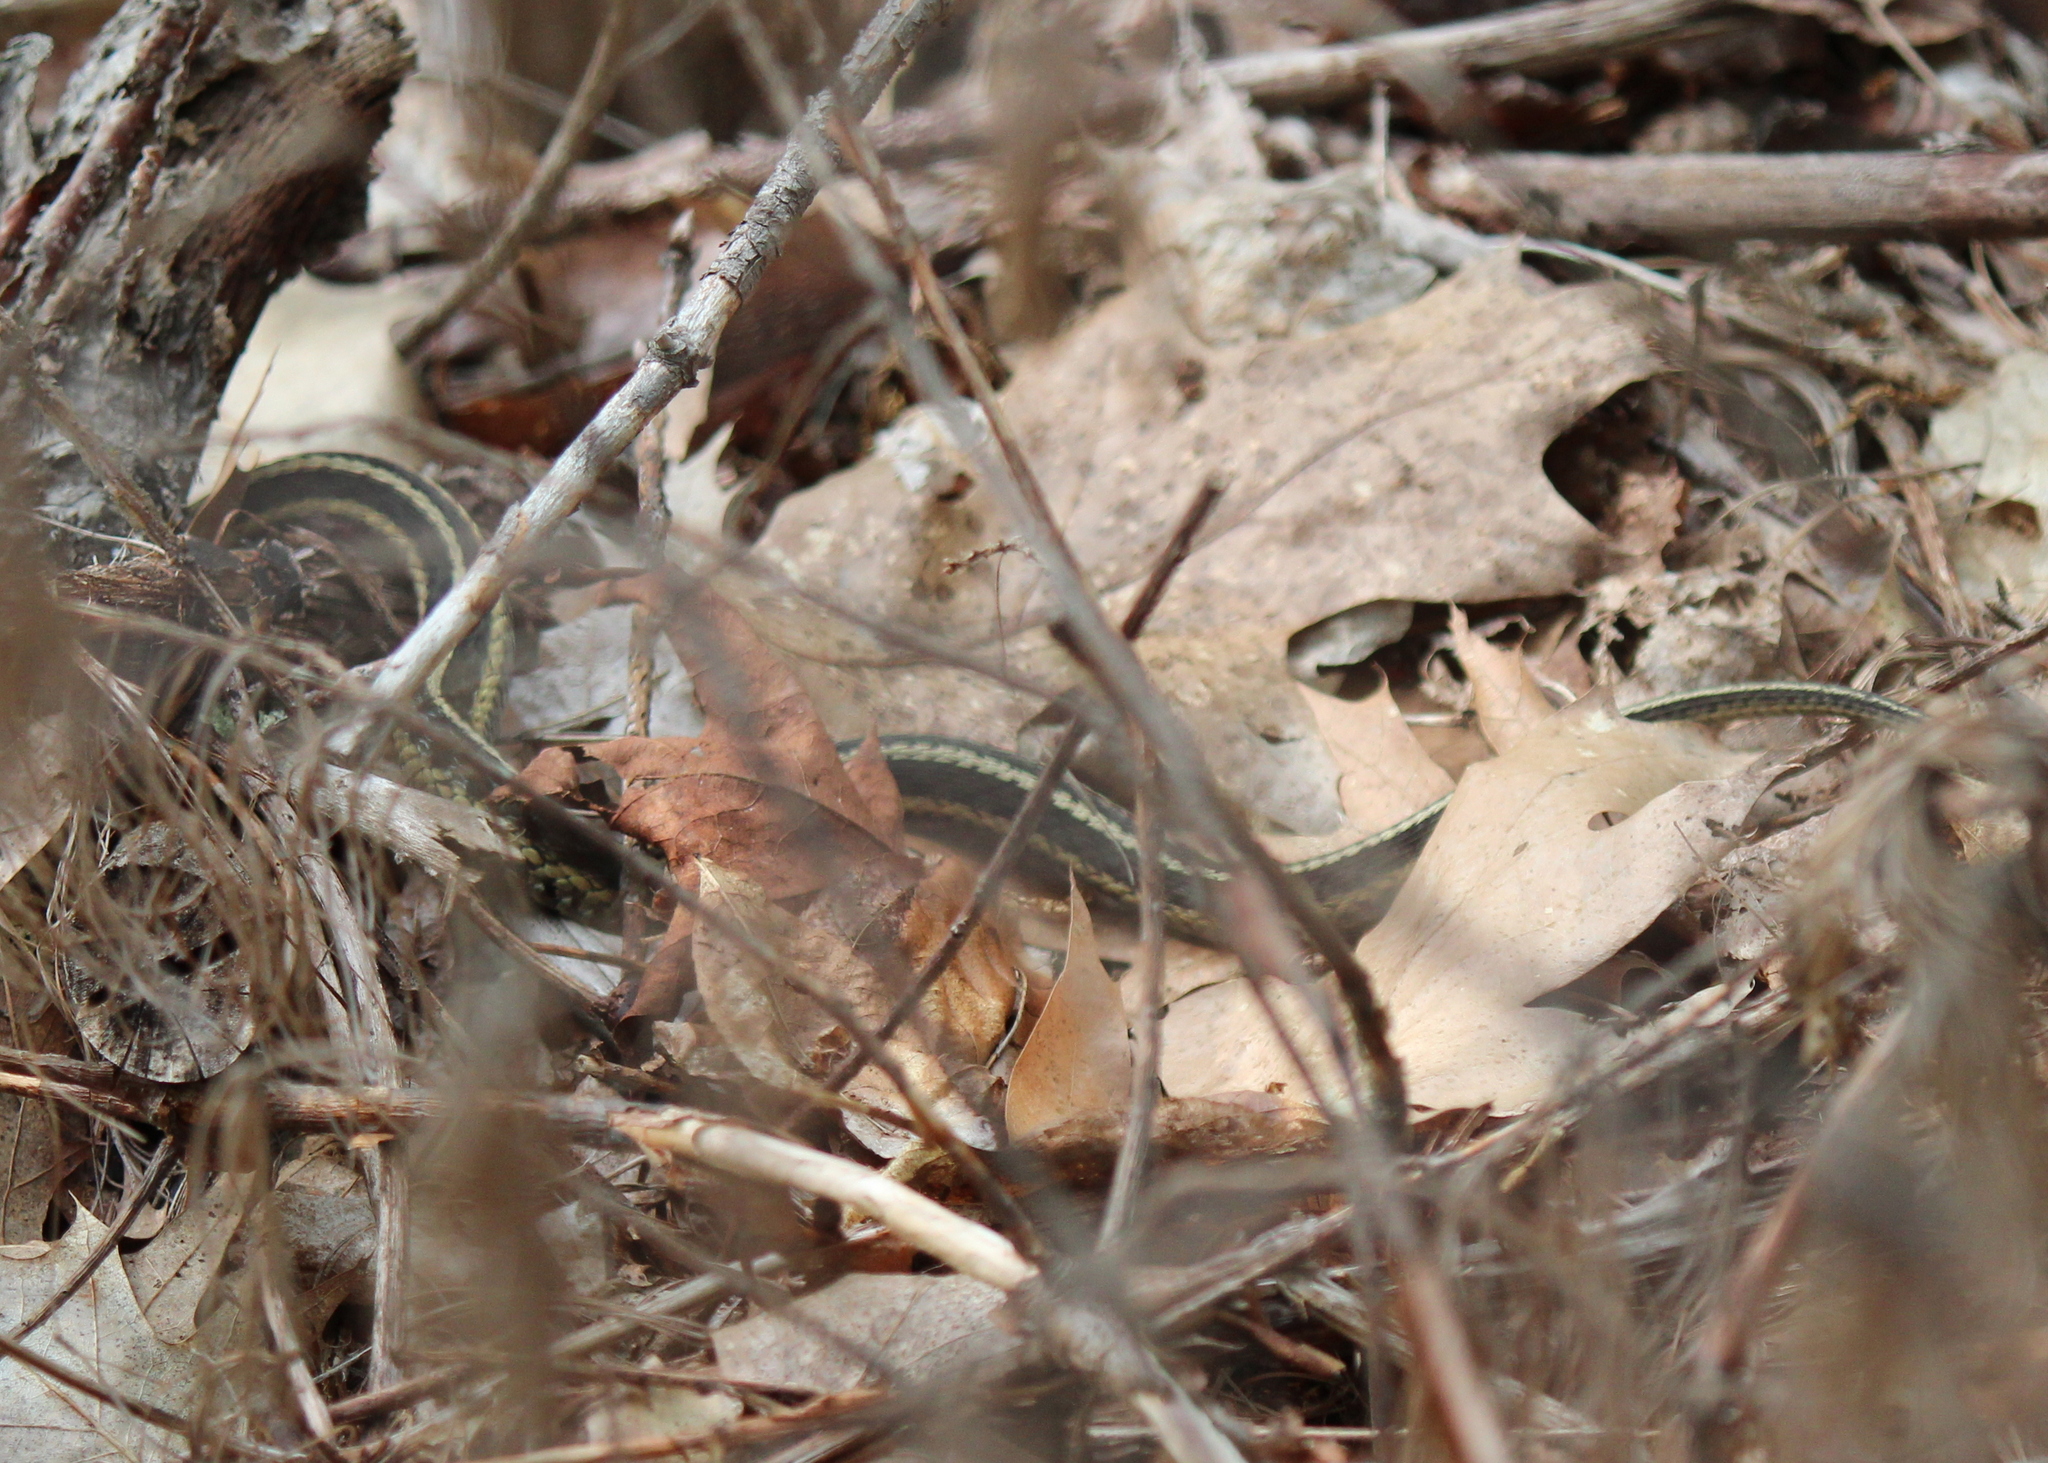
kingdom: Animalia
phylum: Chordata
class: Squamata
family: Colubridae
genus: Thamnophis
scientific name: Thamnophis sirtalis
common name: Common garter snake
